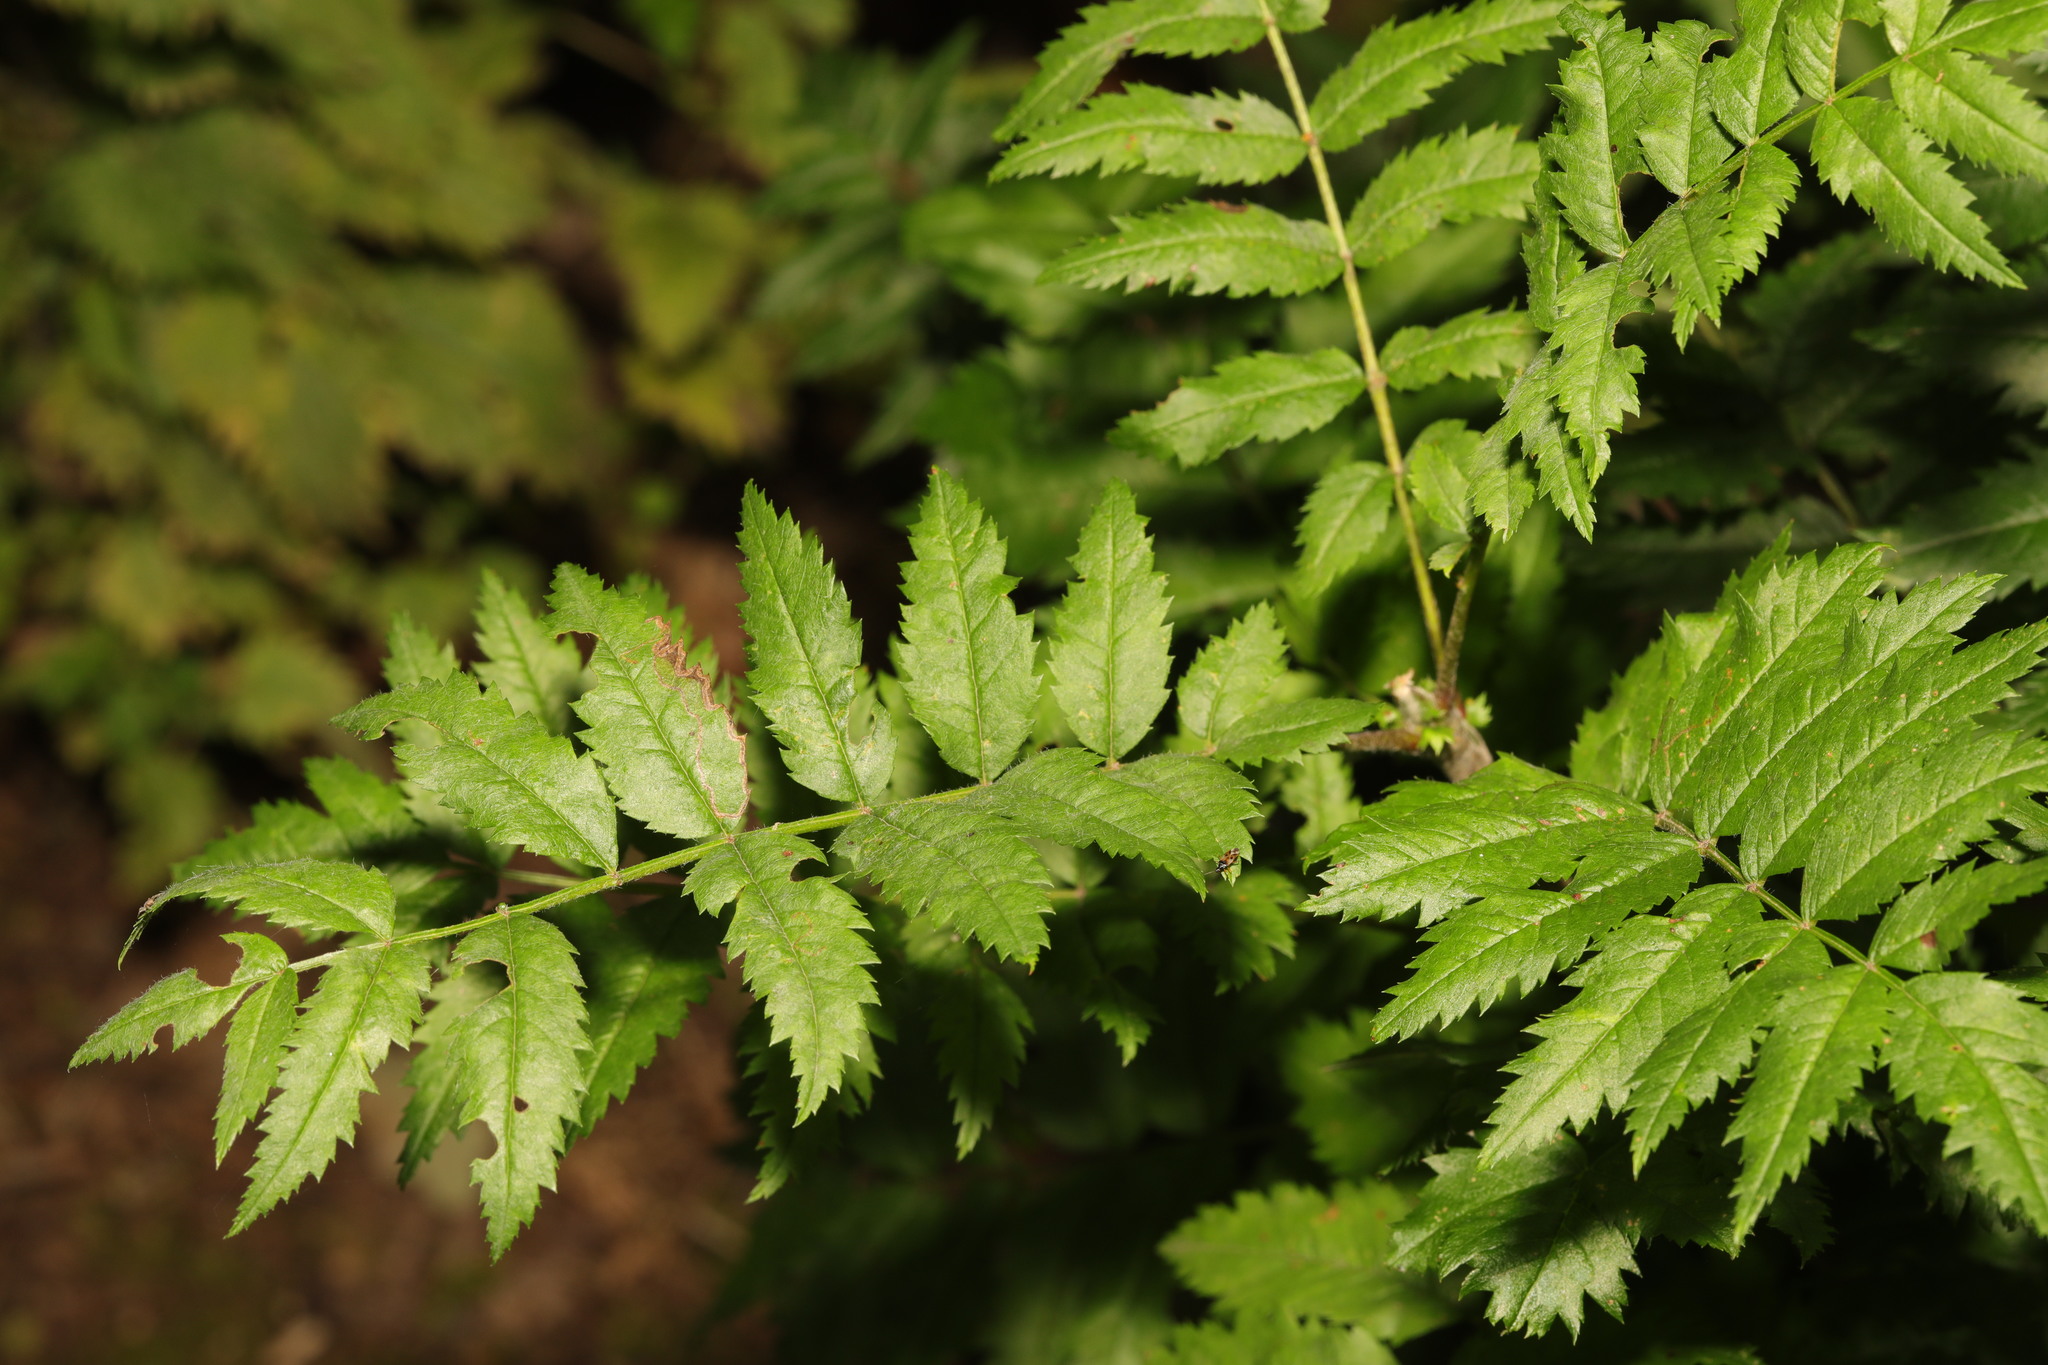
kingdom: Plantae
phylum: Tracheophyta
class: Magnoliopsida
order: Rosales
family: Rosaceae
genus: Sorbus
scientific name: Sorbus aucuparia
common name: Rowan
